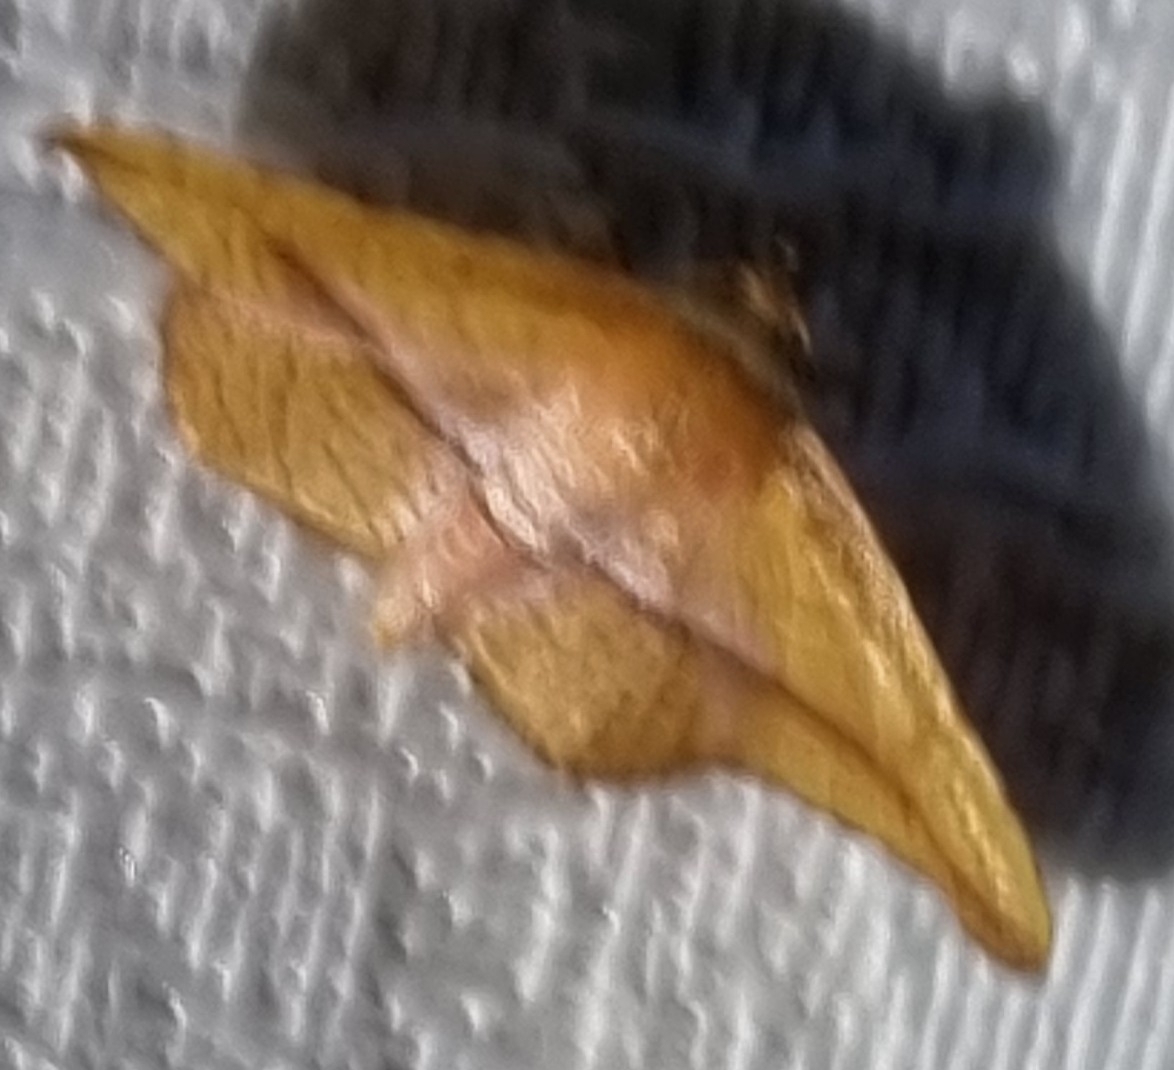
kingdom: Animalia
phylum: Arthropoda
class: Insecta
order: Lepidoptera
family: Thyrididae
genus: Aglaopus
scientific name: Aglaopus loxomita
